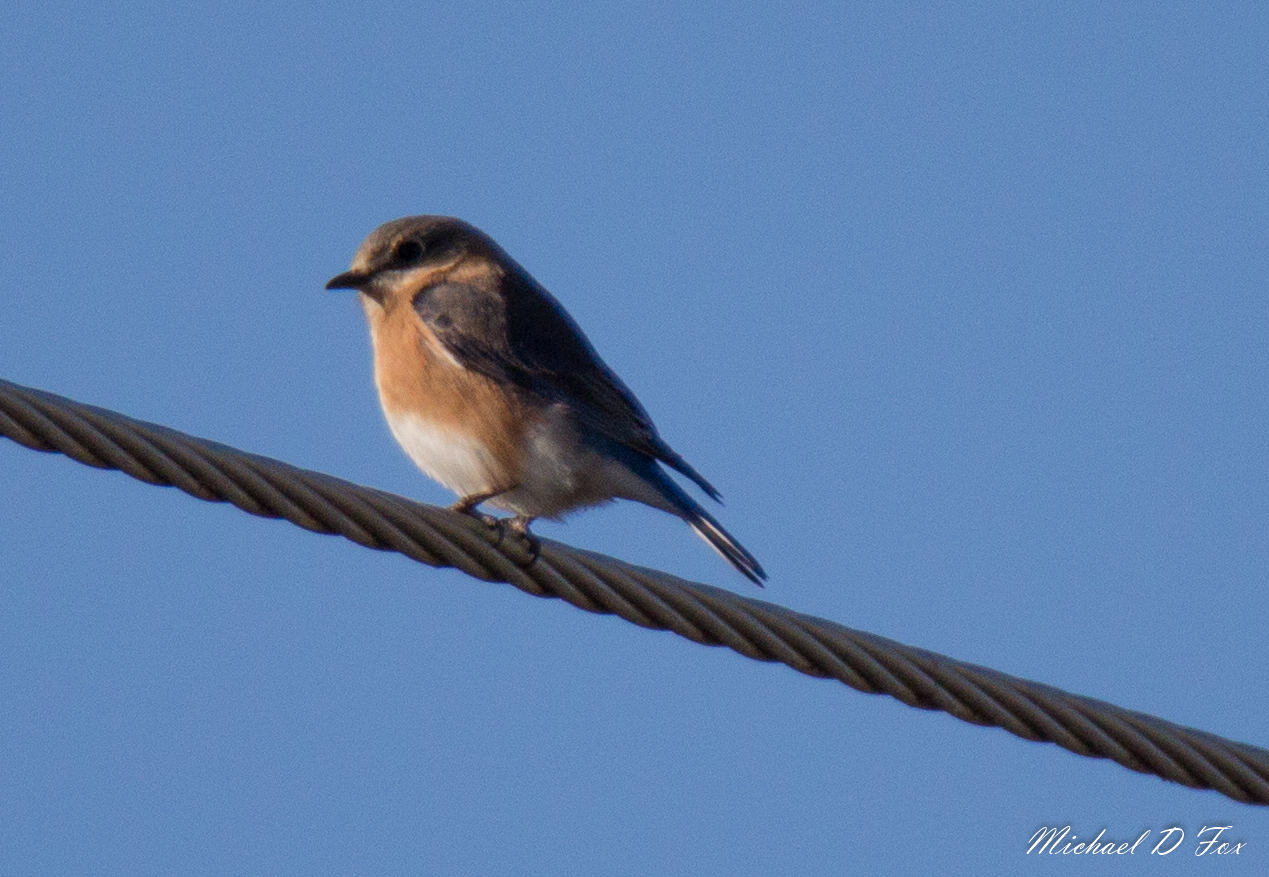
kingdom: Animalia
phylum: Chordata
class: Aves
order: Passeriformes
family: Turdidae
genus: Sialia
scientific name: Sialia sialis
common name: Eastern bluebird
